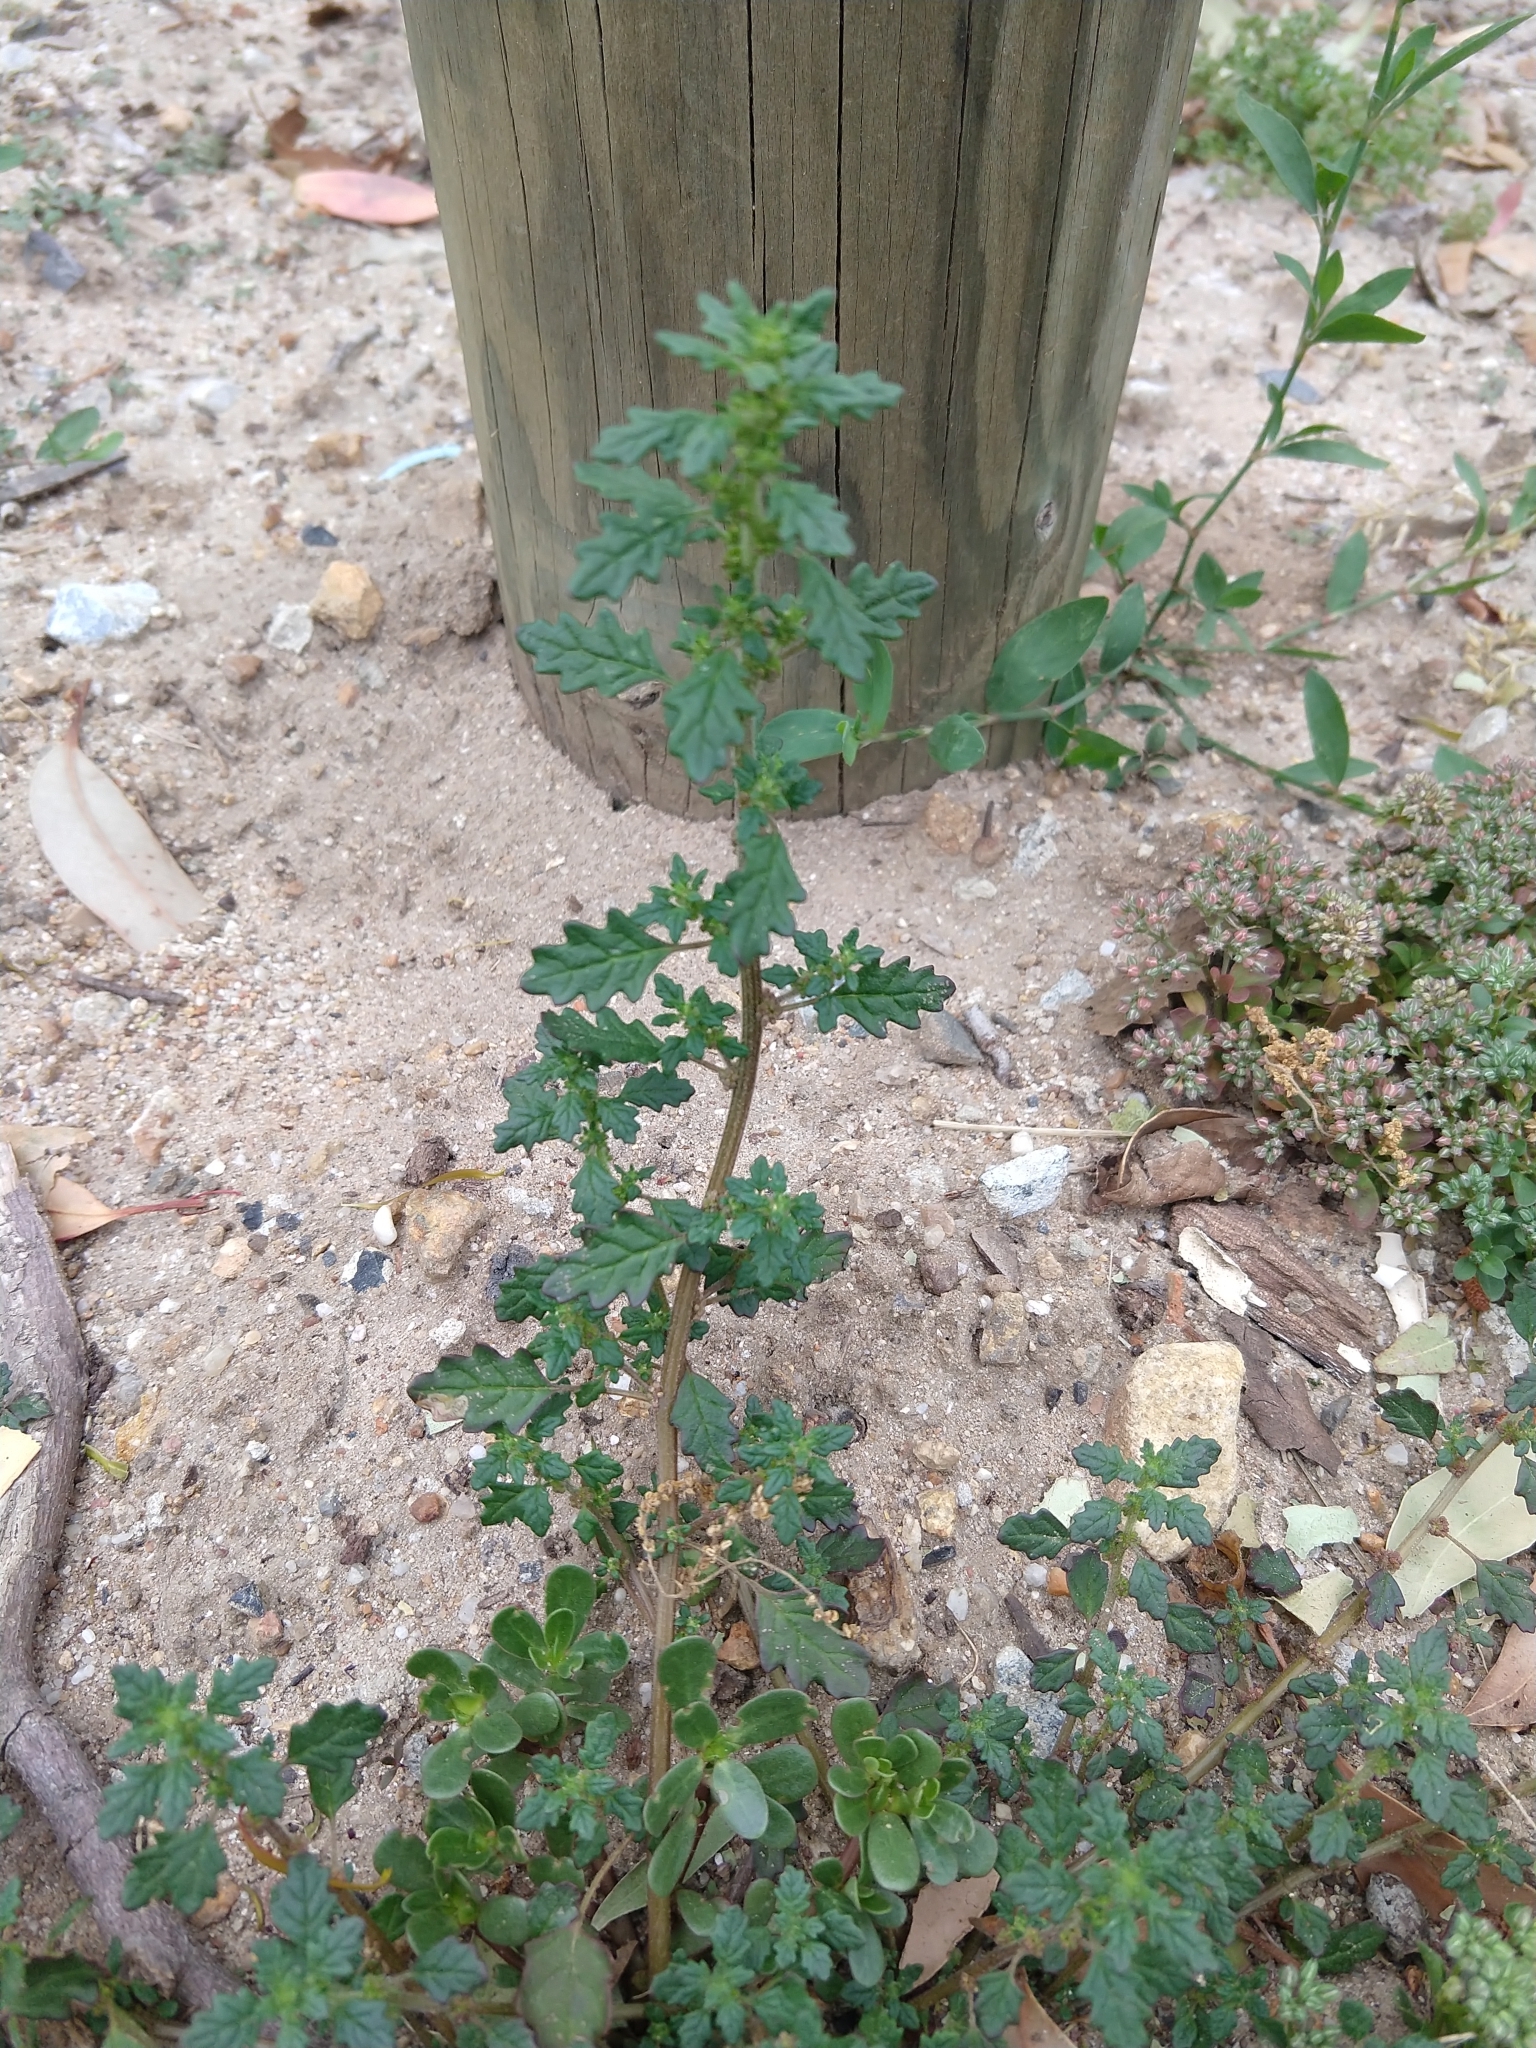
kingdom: Plantae
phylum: Tracheophyta
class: Magnoliopsida
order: Caryophyllales
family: Amaranthaceae
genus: Dysphania
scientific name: Dysphania pumilio
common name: Clammy goosefoot
